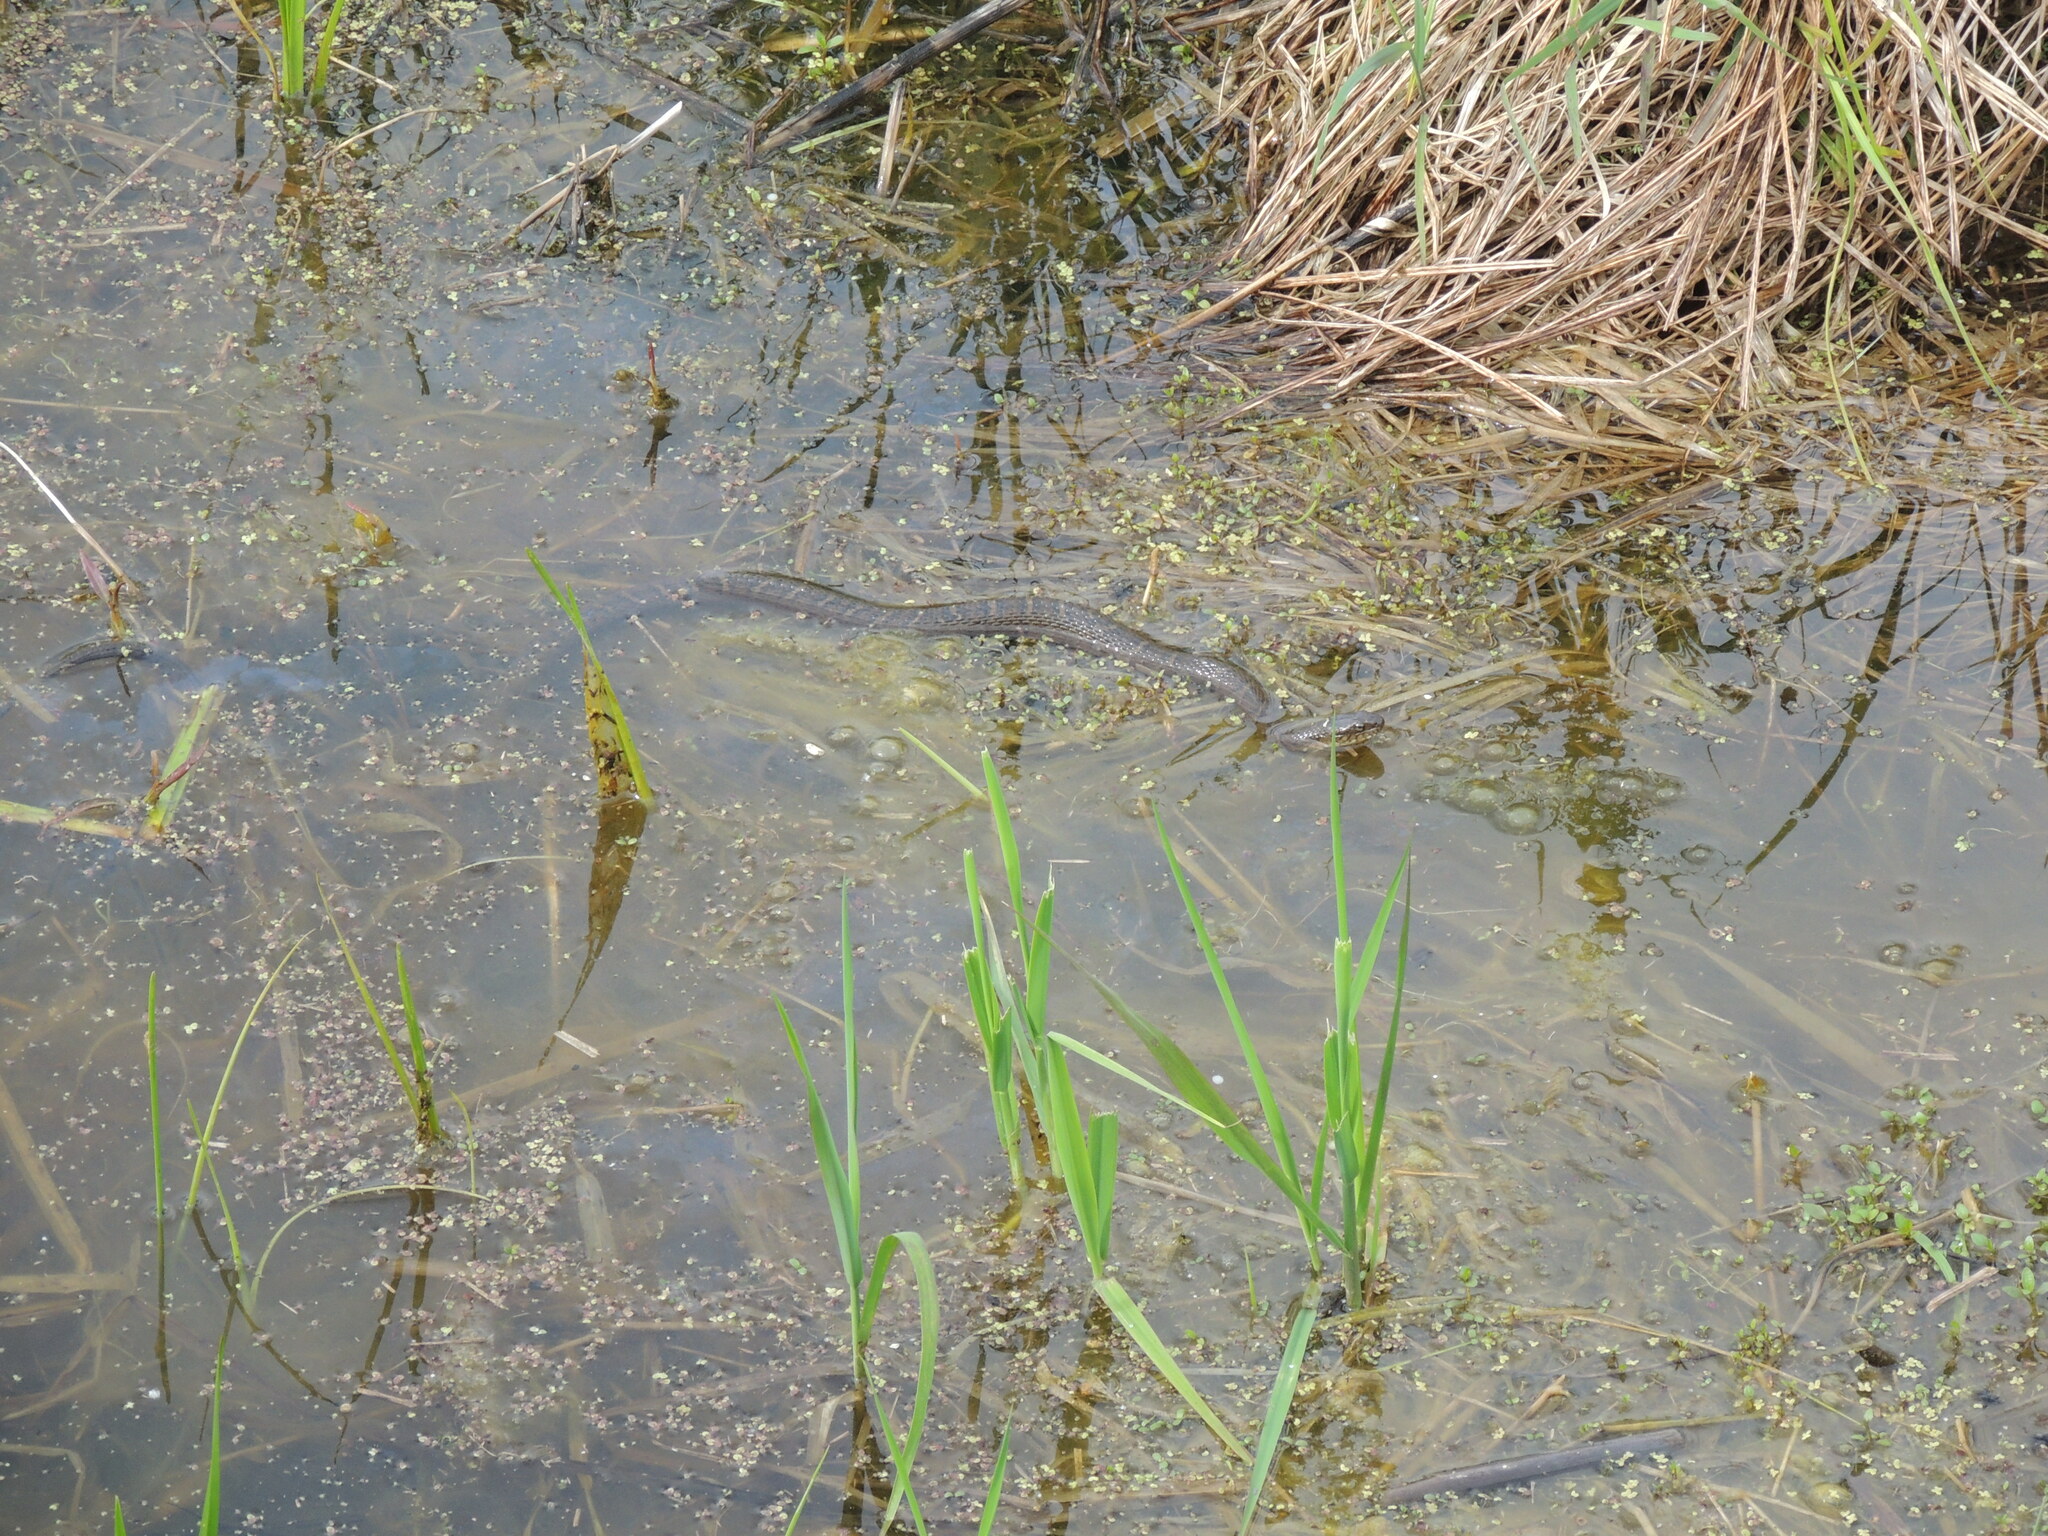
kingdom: Animalia
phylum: Chordata
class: Squamata
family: Colubridae
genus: Nerodia
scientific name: Nerodia sipedon
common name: Northern water snake
